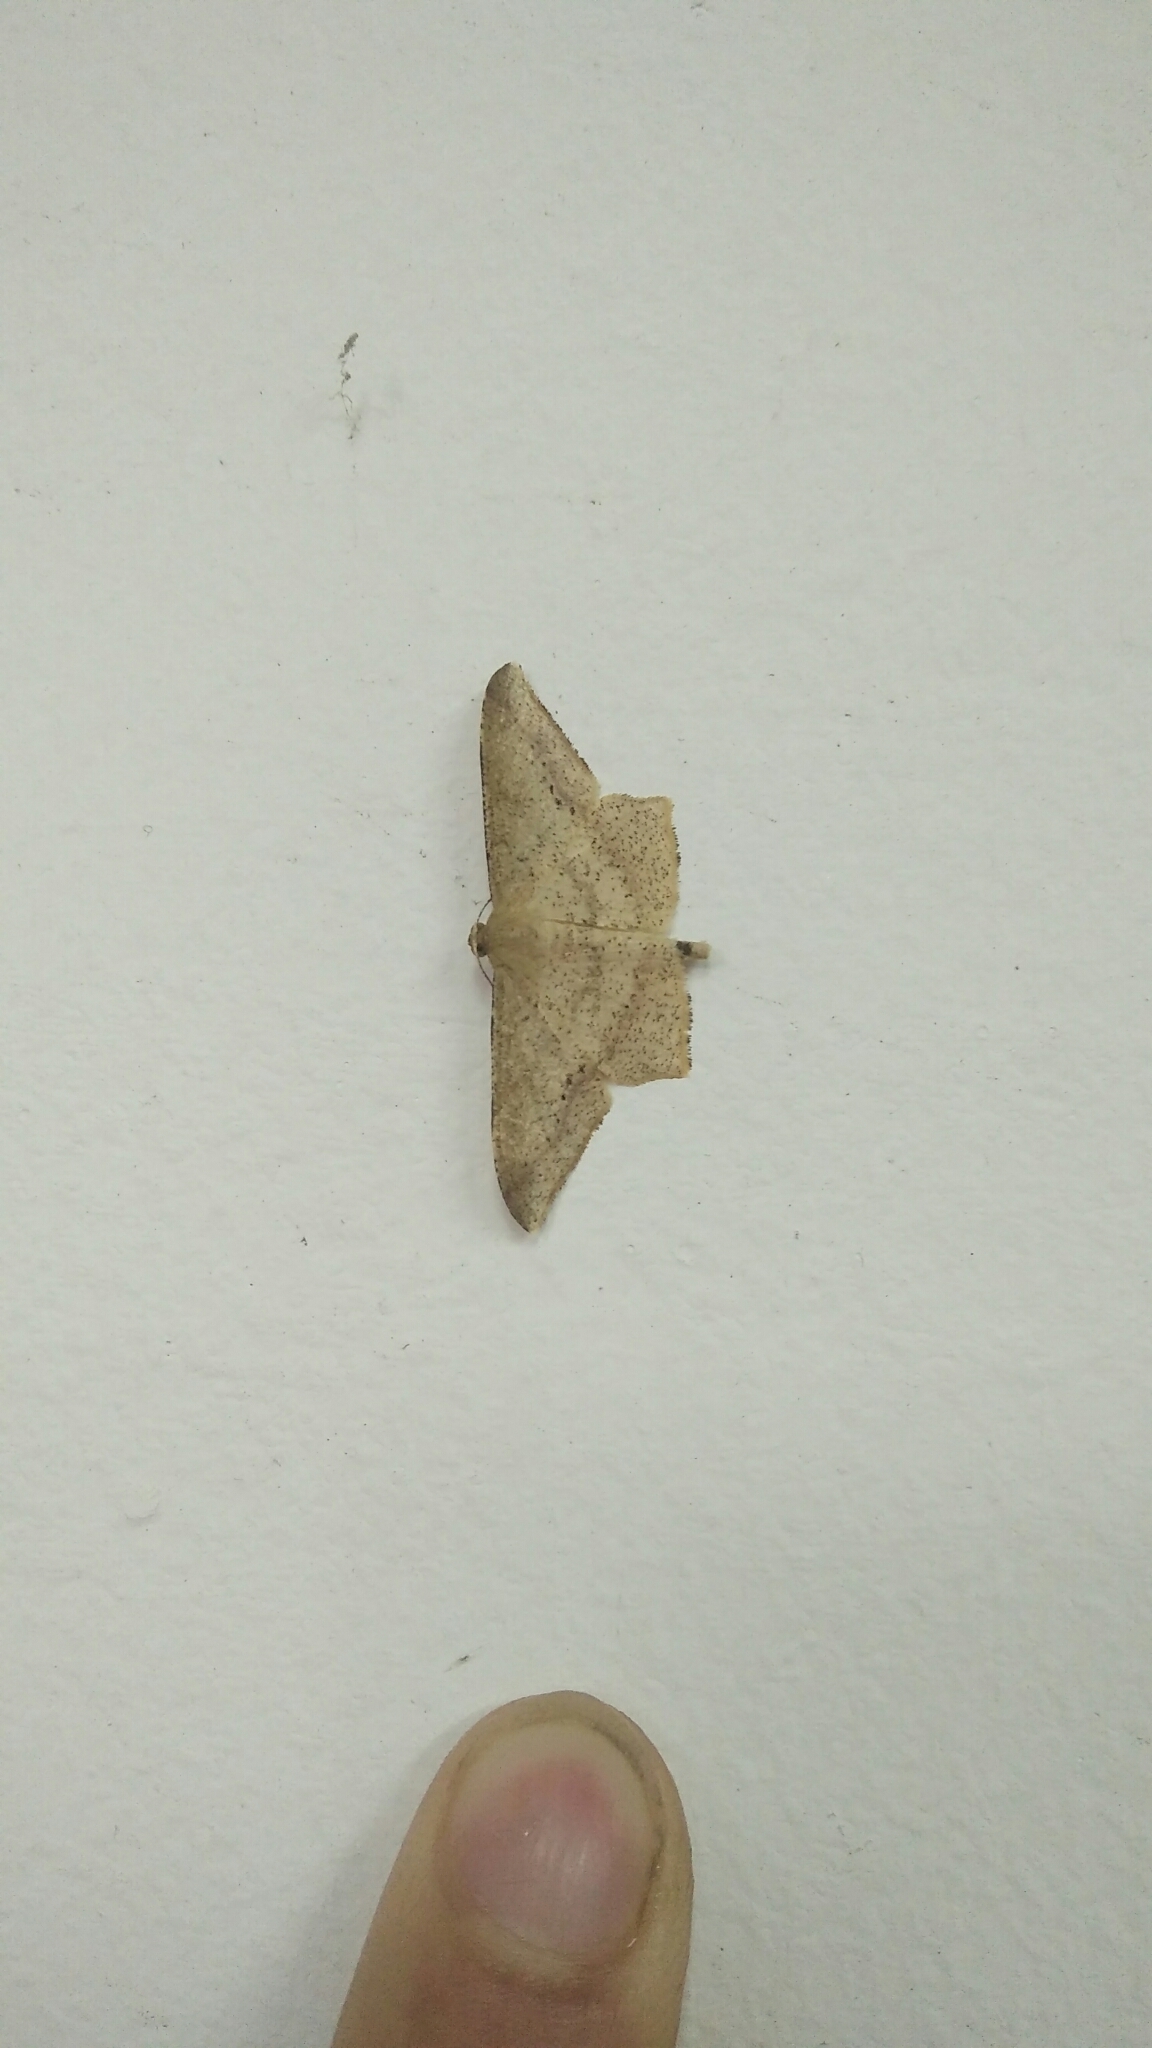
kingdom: Animalia
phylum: Arthropoda
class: Insecta
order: Lepidoptera
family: Geometridae
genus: Krananda
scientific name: Krananda falcata
